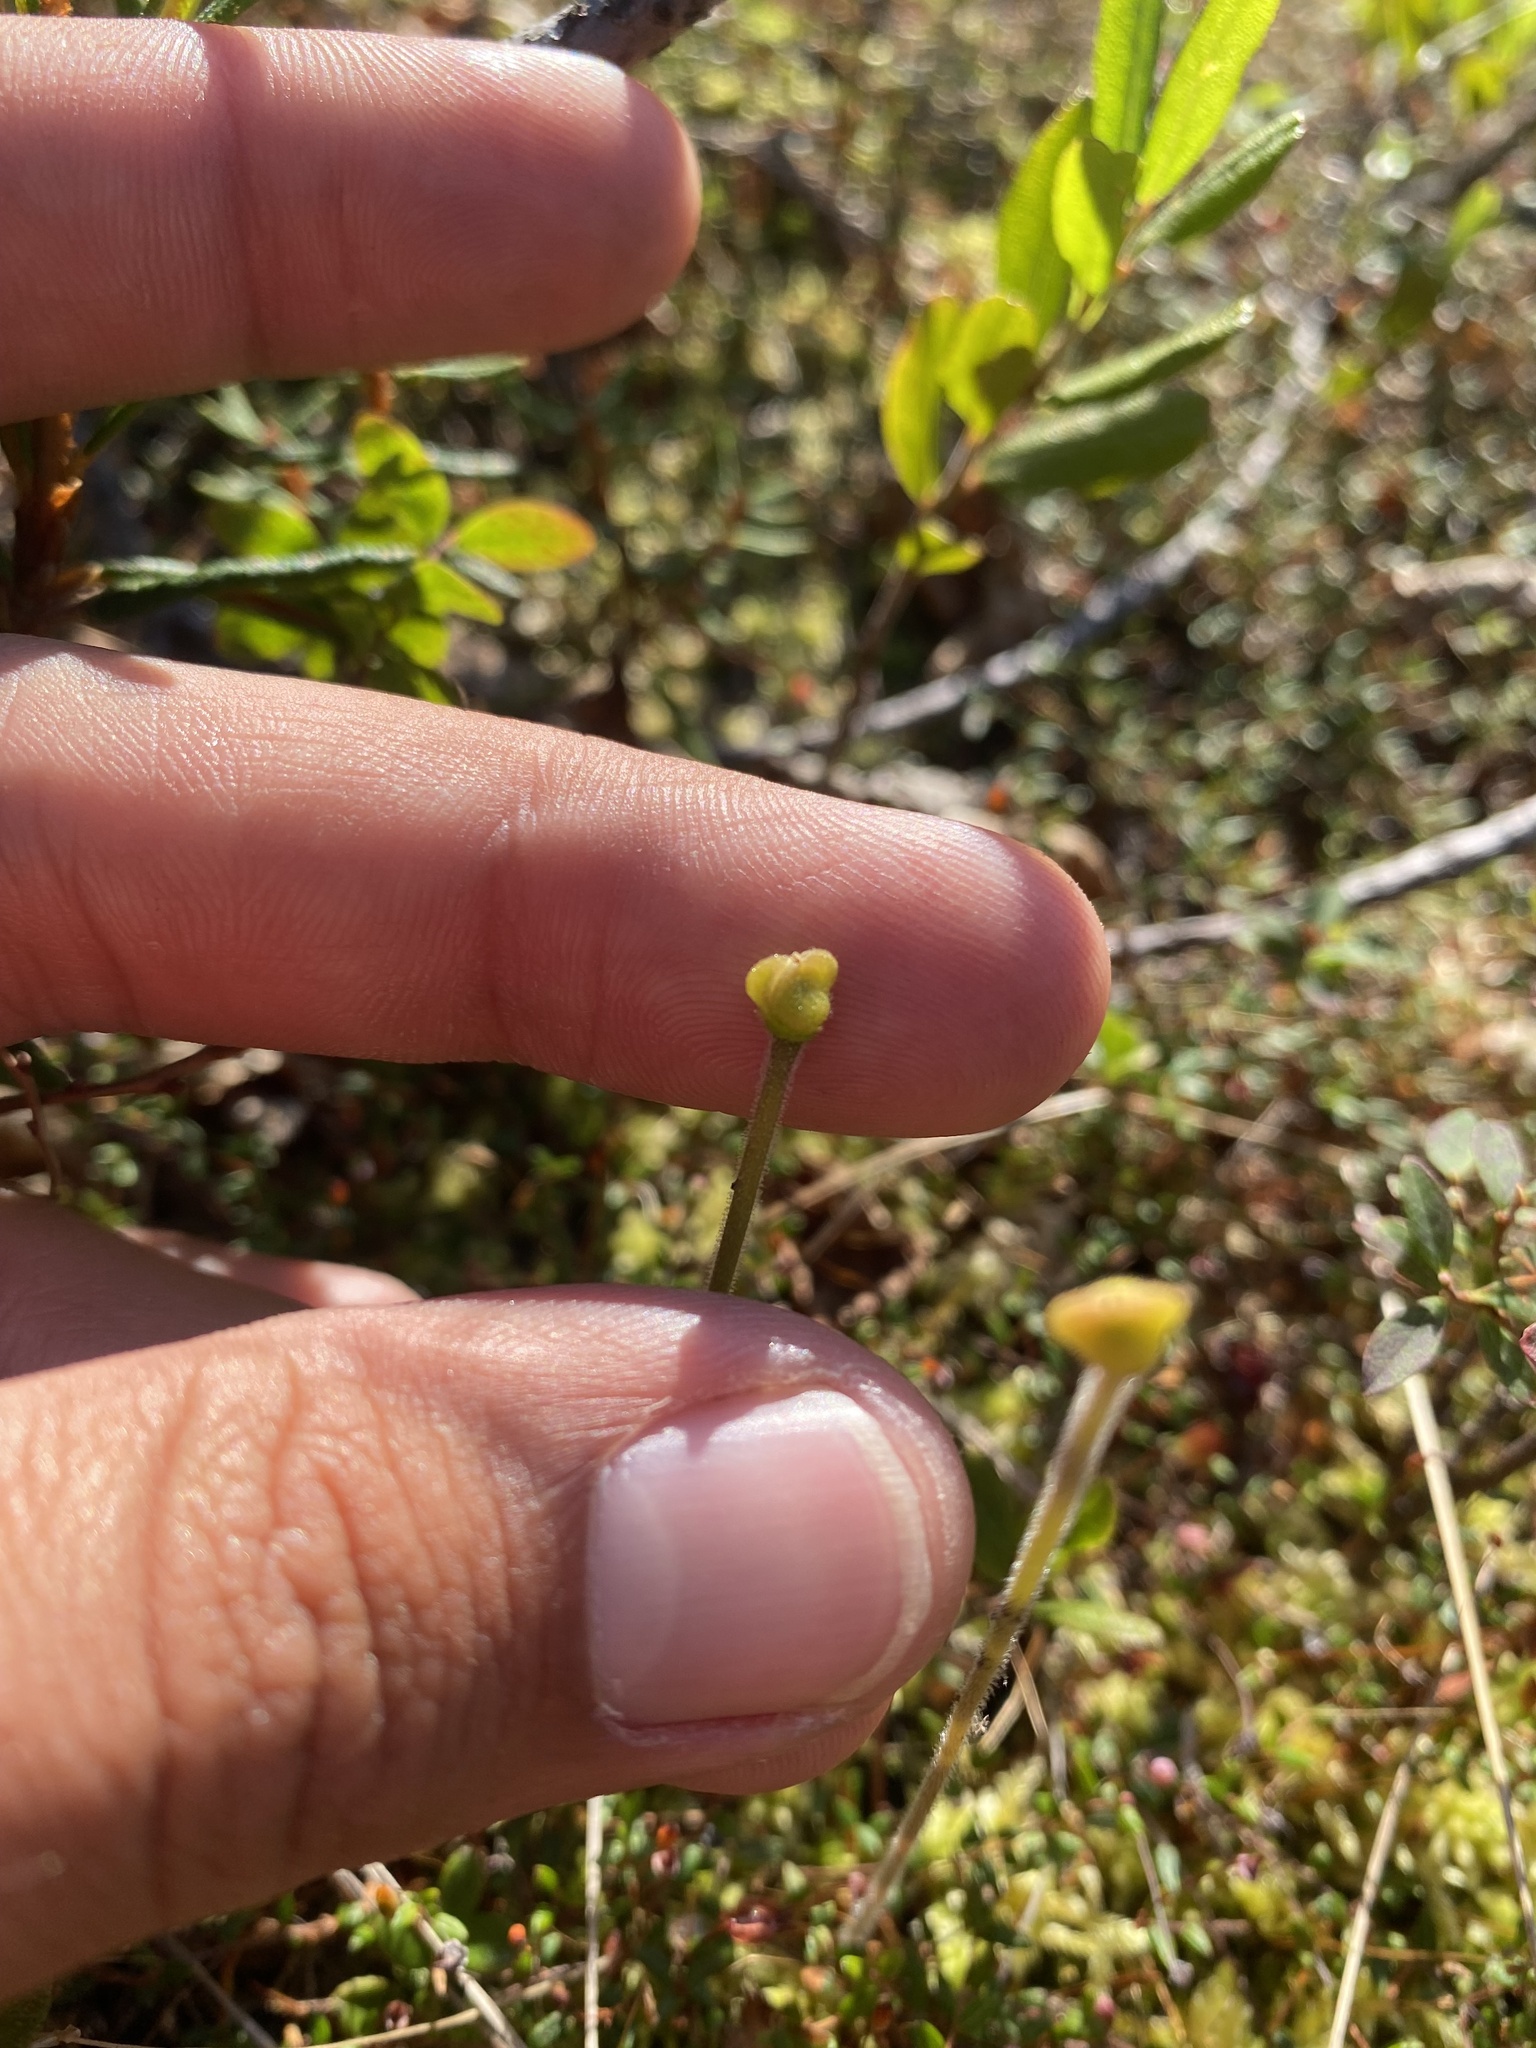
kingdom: Plantae
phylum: Tracheophyta
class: Magnoliopsida
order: Lamiales
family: Lentibulariaceae
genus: Pinguicula
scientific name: Pinguicula villosa
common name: Hairy butterwort
